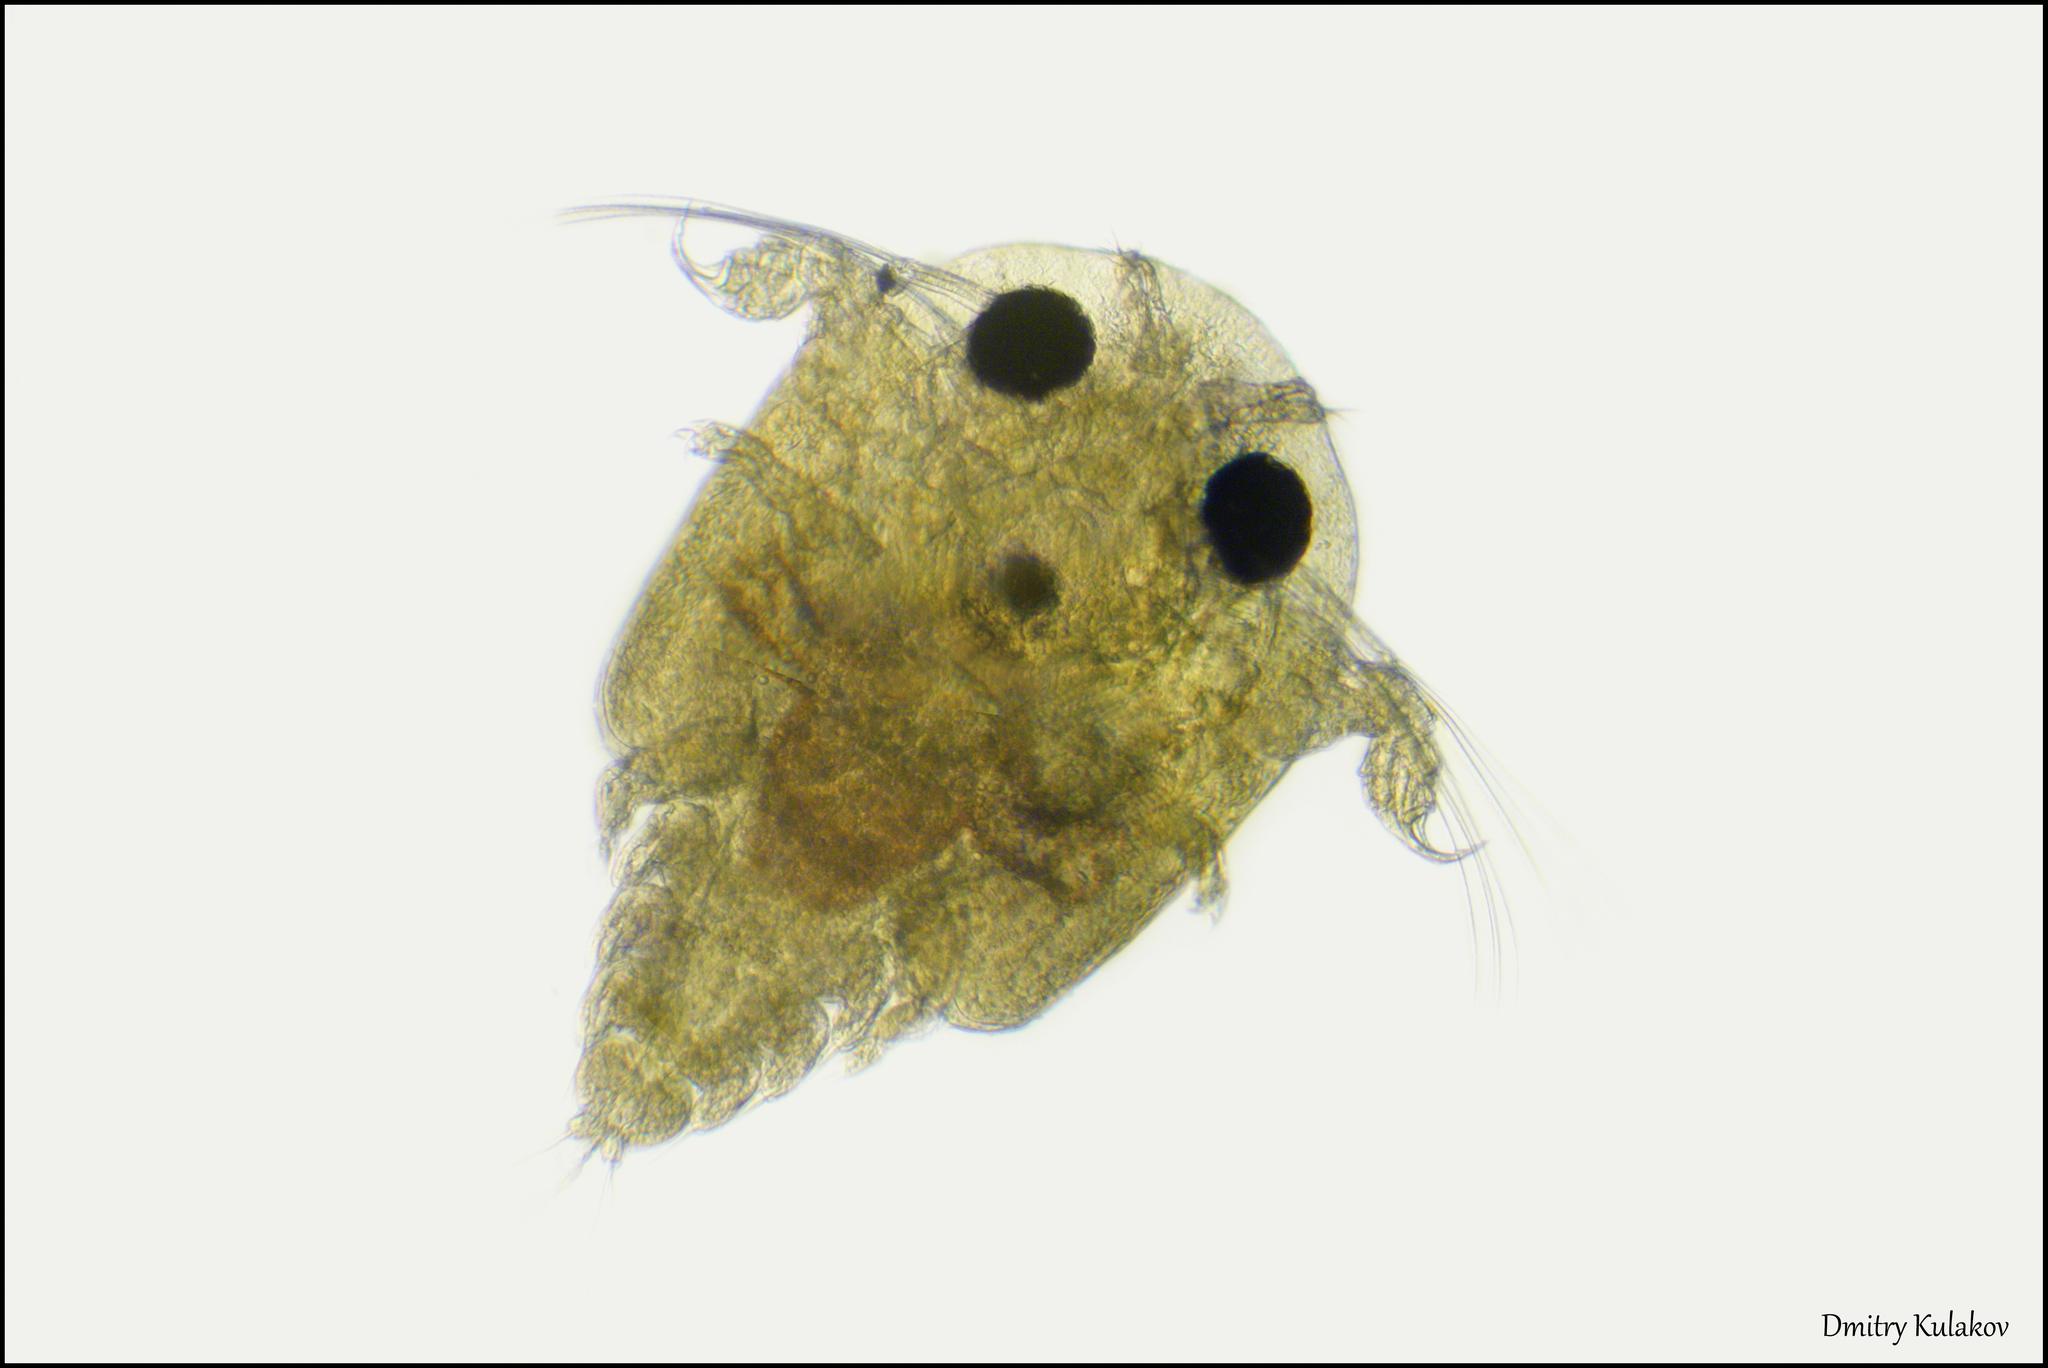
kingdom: Animalia
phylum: Arthropoda
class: Maxillopoda
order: Arguloida
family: Argulidae
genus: Argulus
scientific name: Argulus foliaceus
